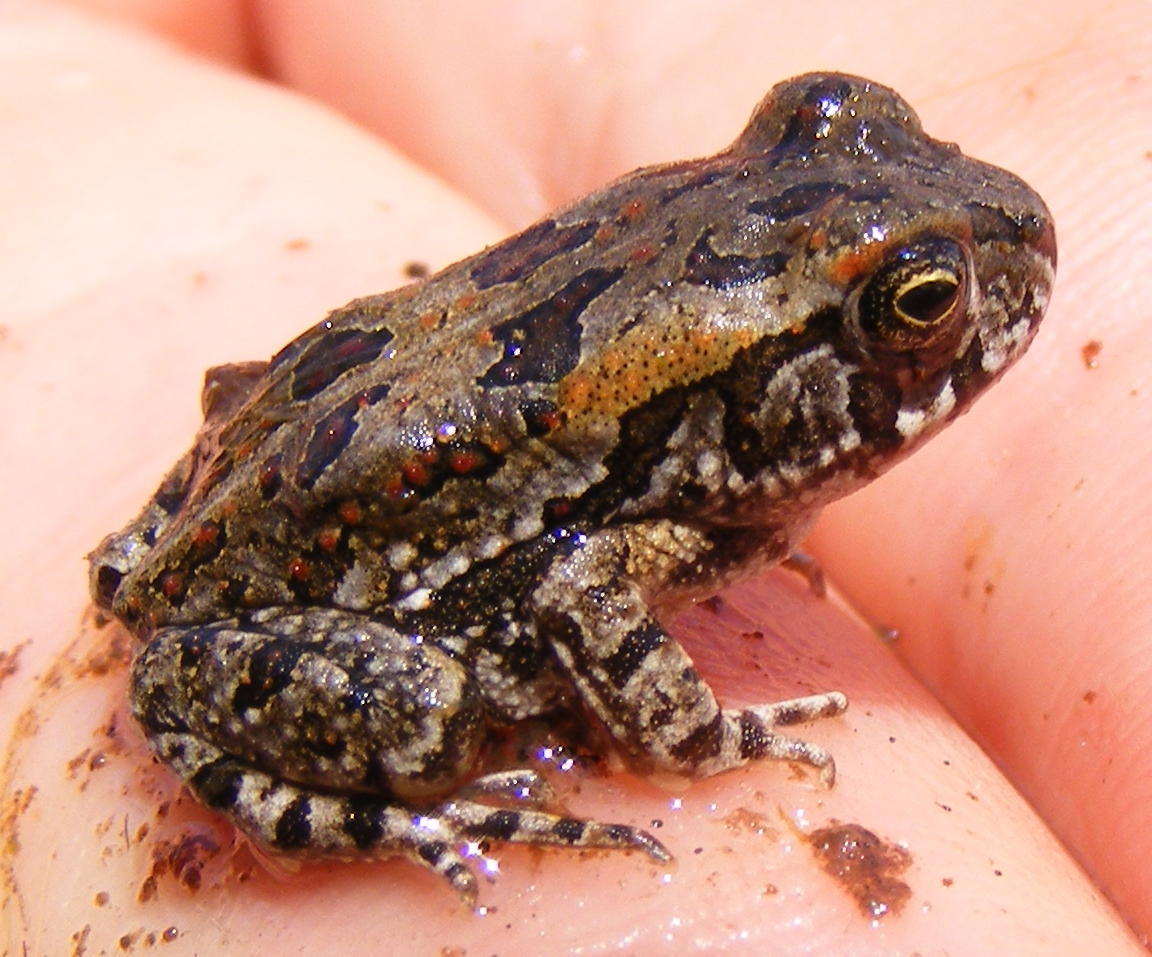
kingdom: Animalia
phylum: Chordata
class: Amphibia
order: Anura
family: Bufonidae
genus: Sclerophrys
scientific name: Sclerophrys garmani
